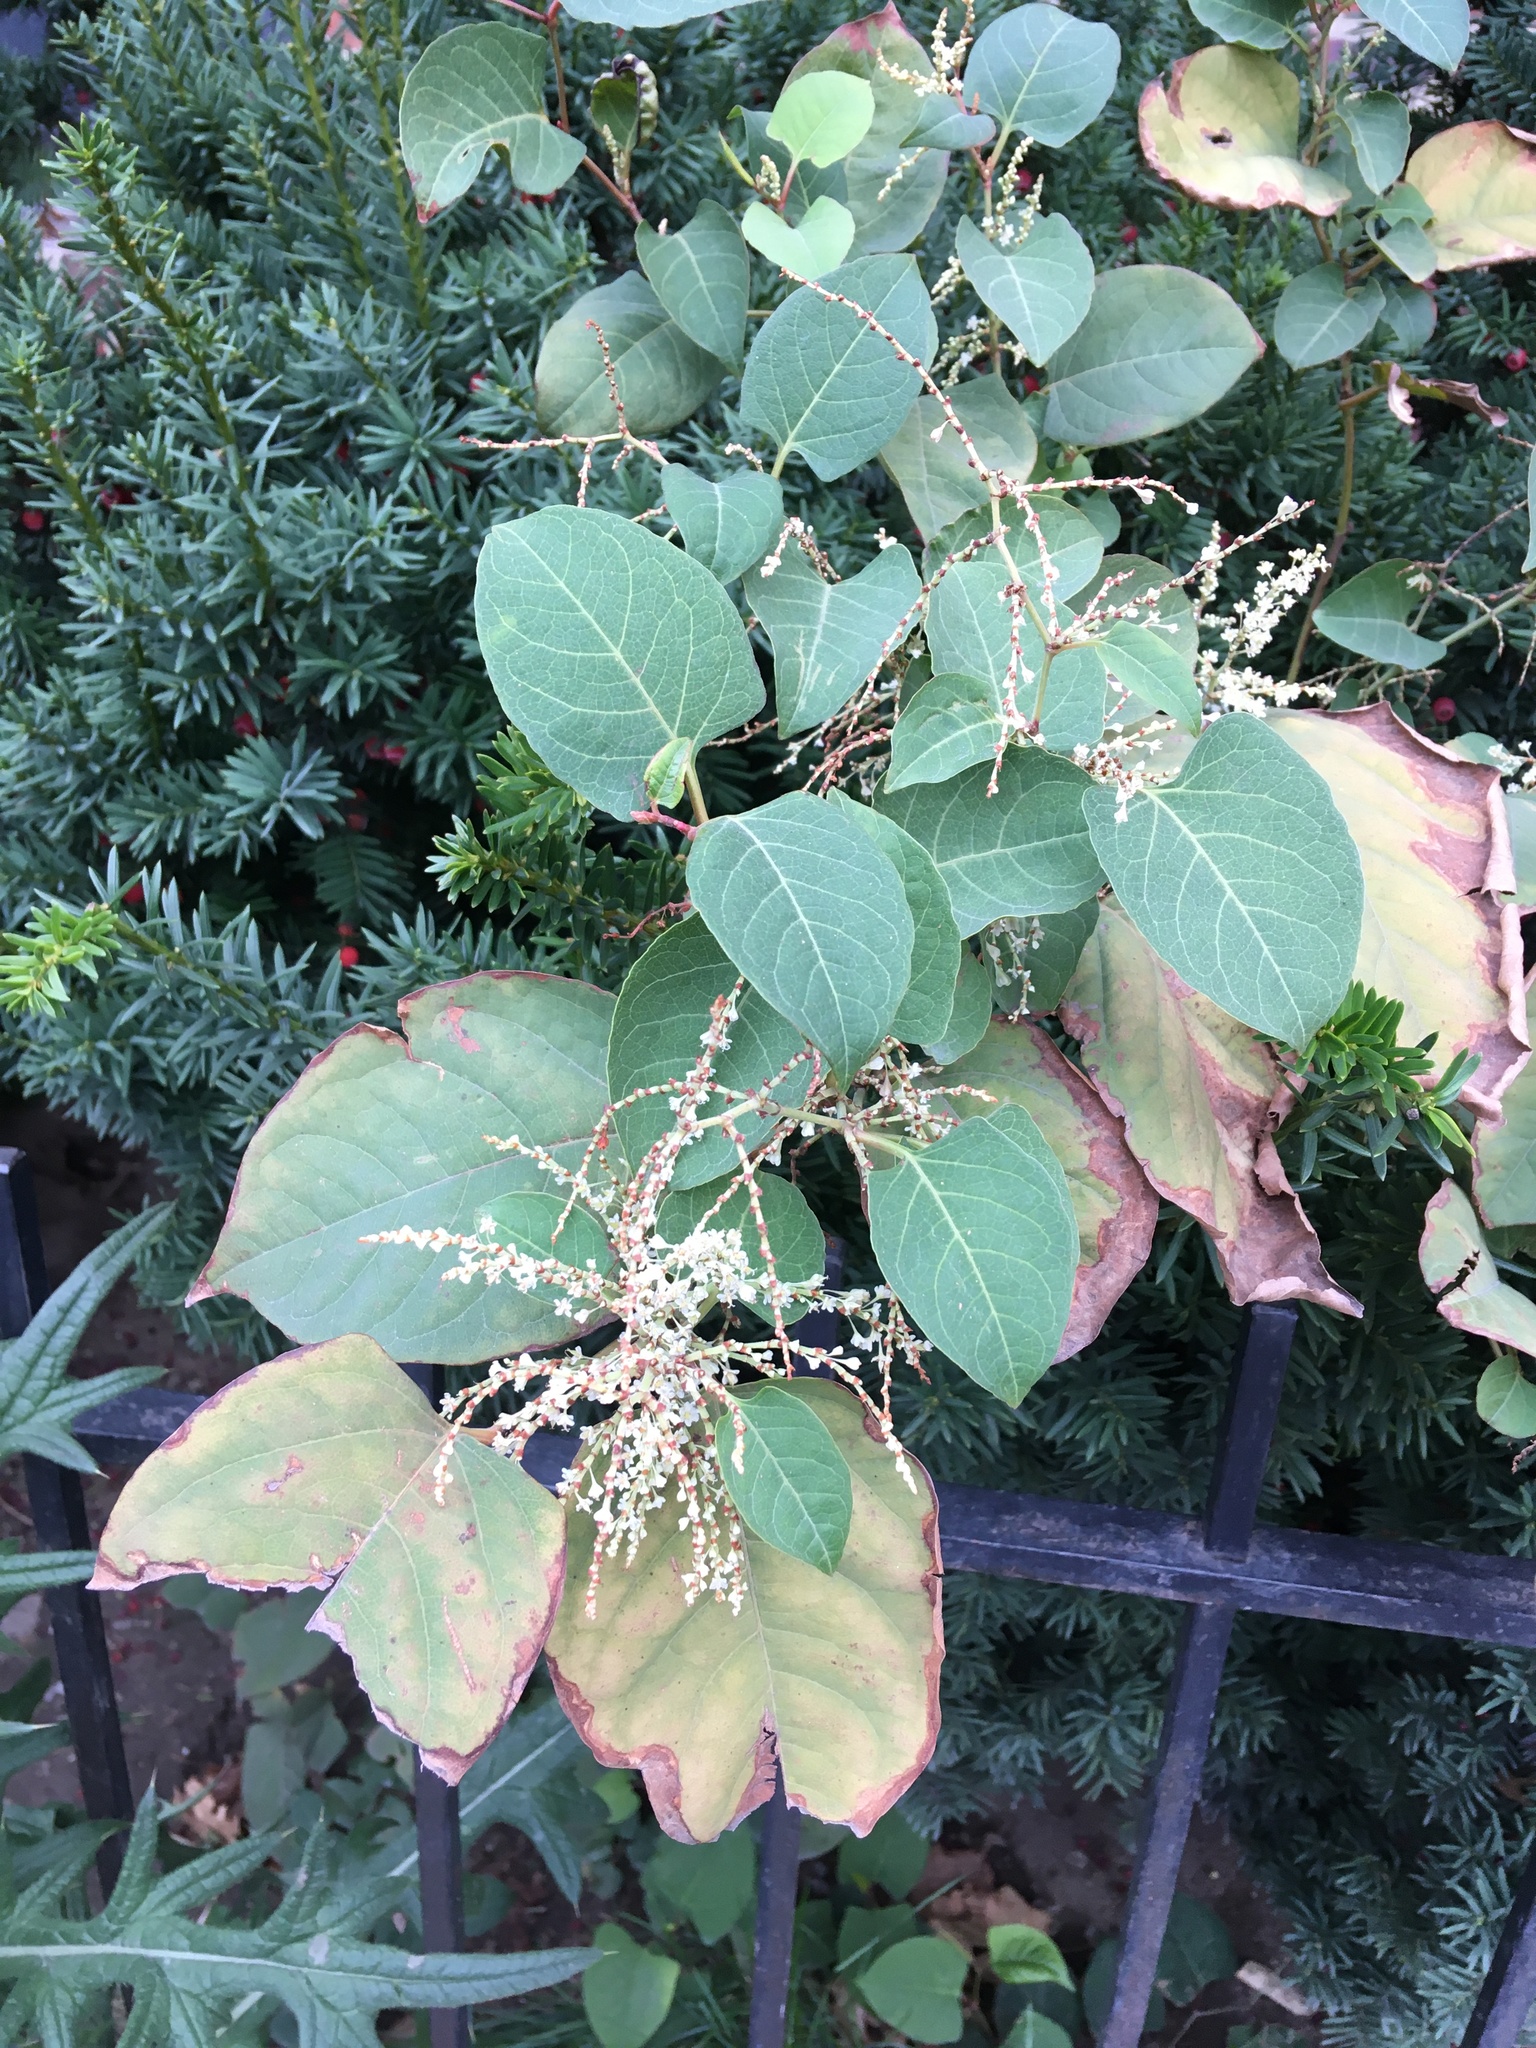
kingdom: Plantae
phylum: Tracheophyta
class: Magnoliopsida
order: Caryophyllales
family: Polygonaceae
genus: Reynoutria
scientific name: Reynoutria japonica
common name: Japanese knotweed
